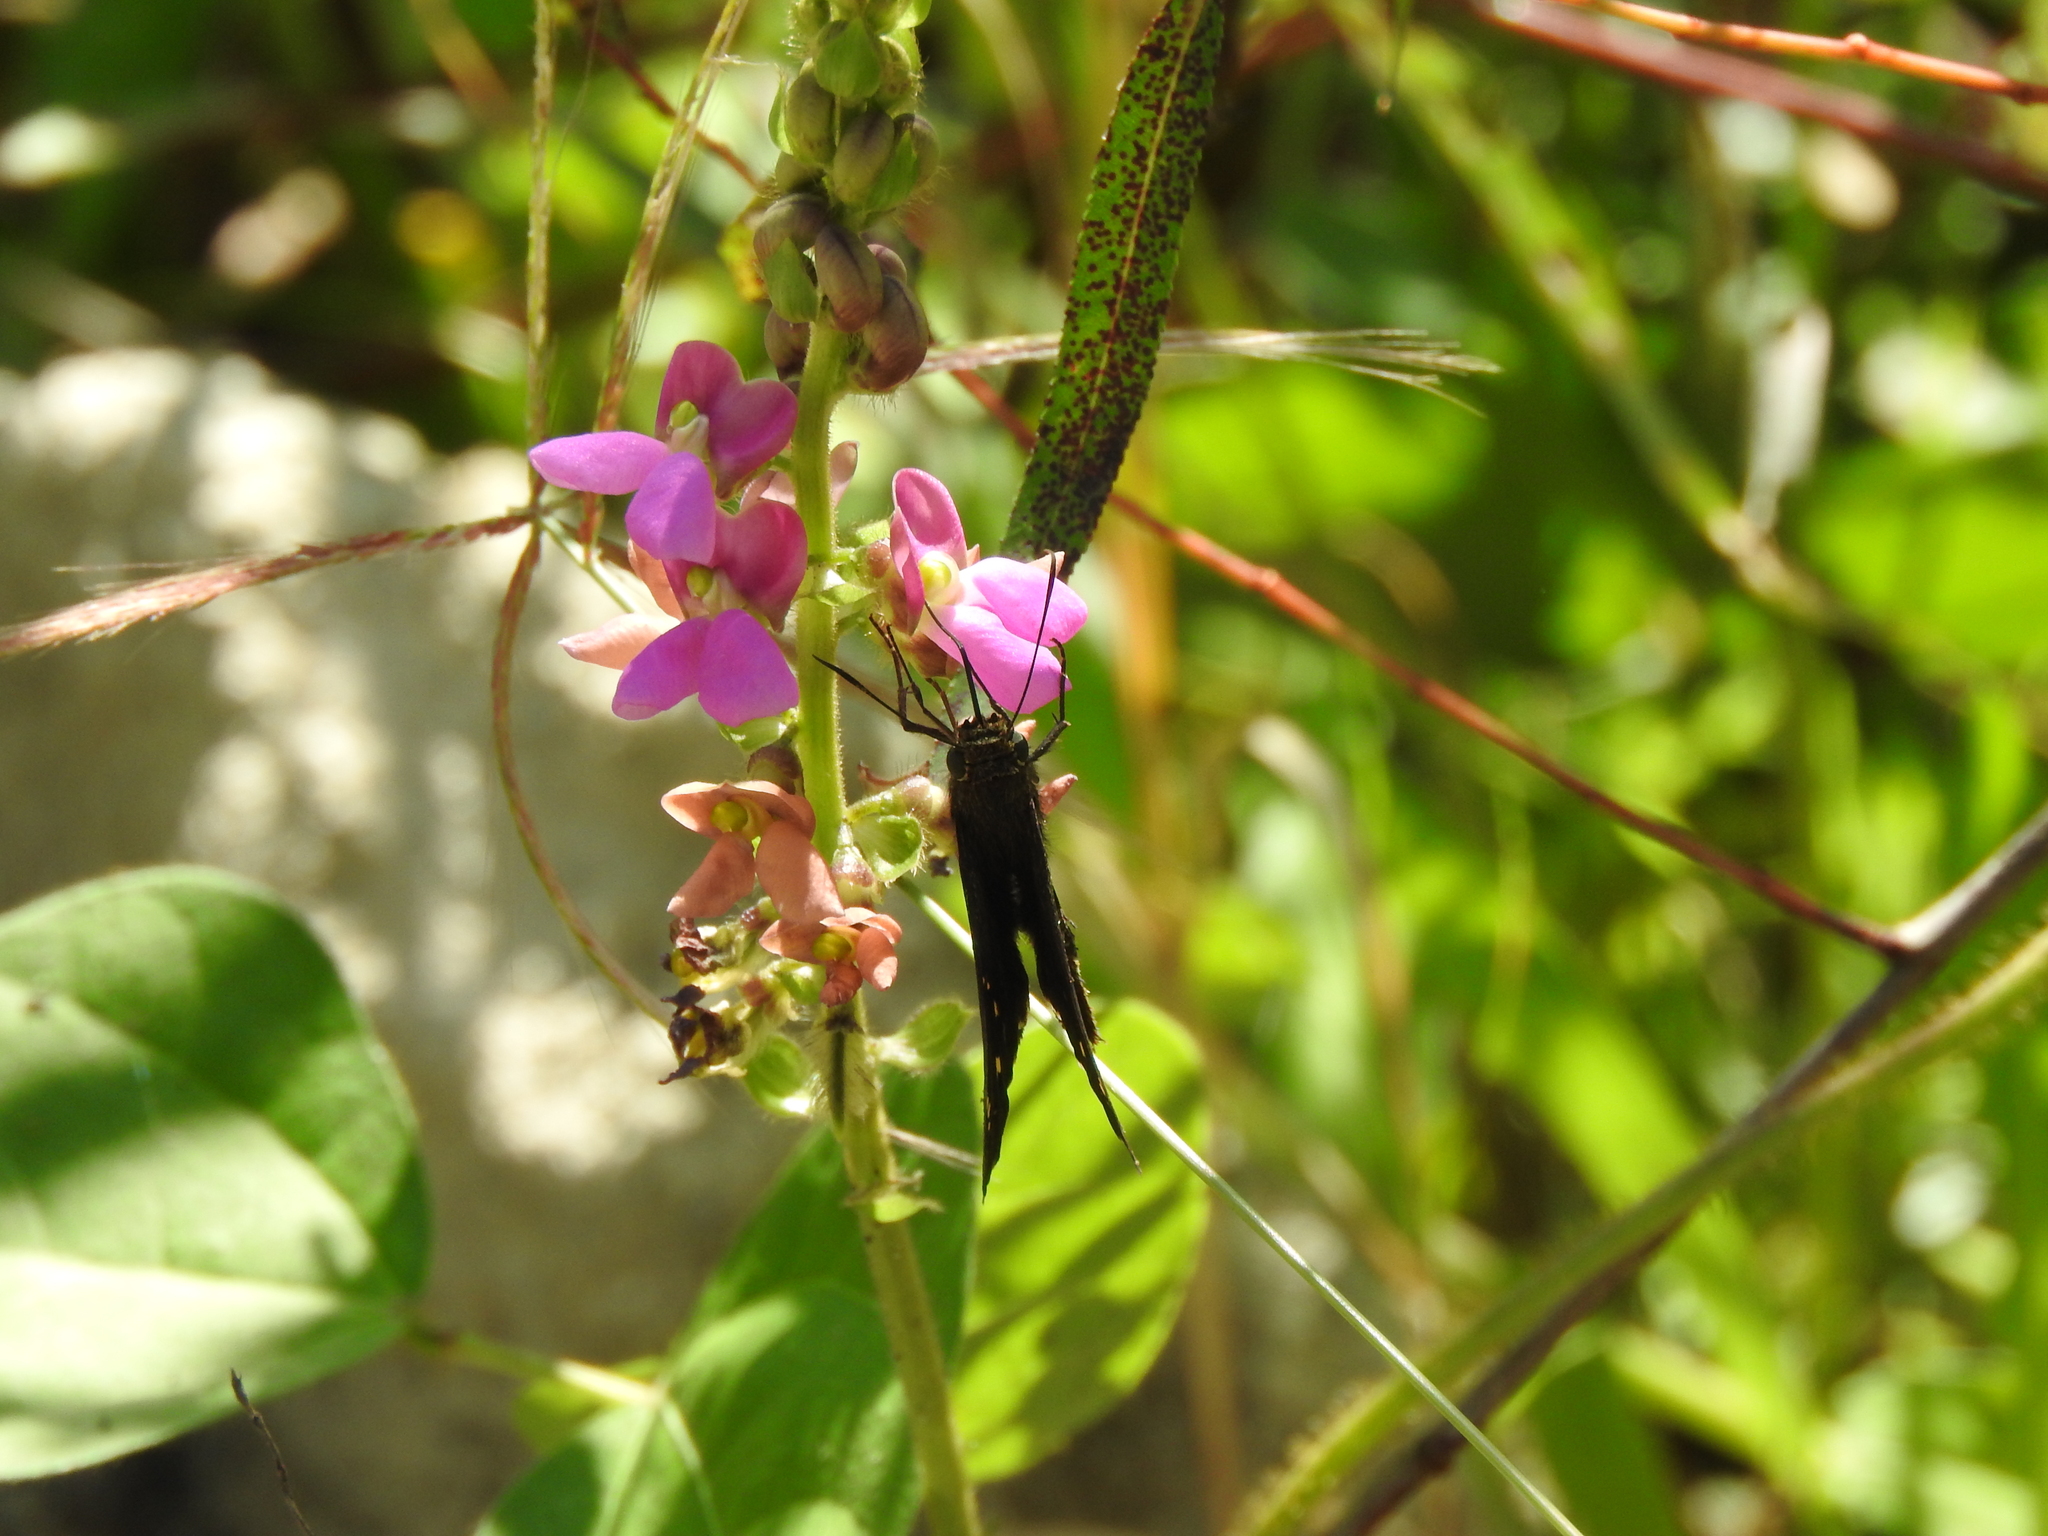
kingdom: Animalia
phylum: Arthropoda
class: Insecta
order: Lepidoptera
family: Hesperiidae
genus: Thorybes
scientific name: Thorybes
